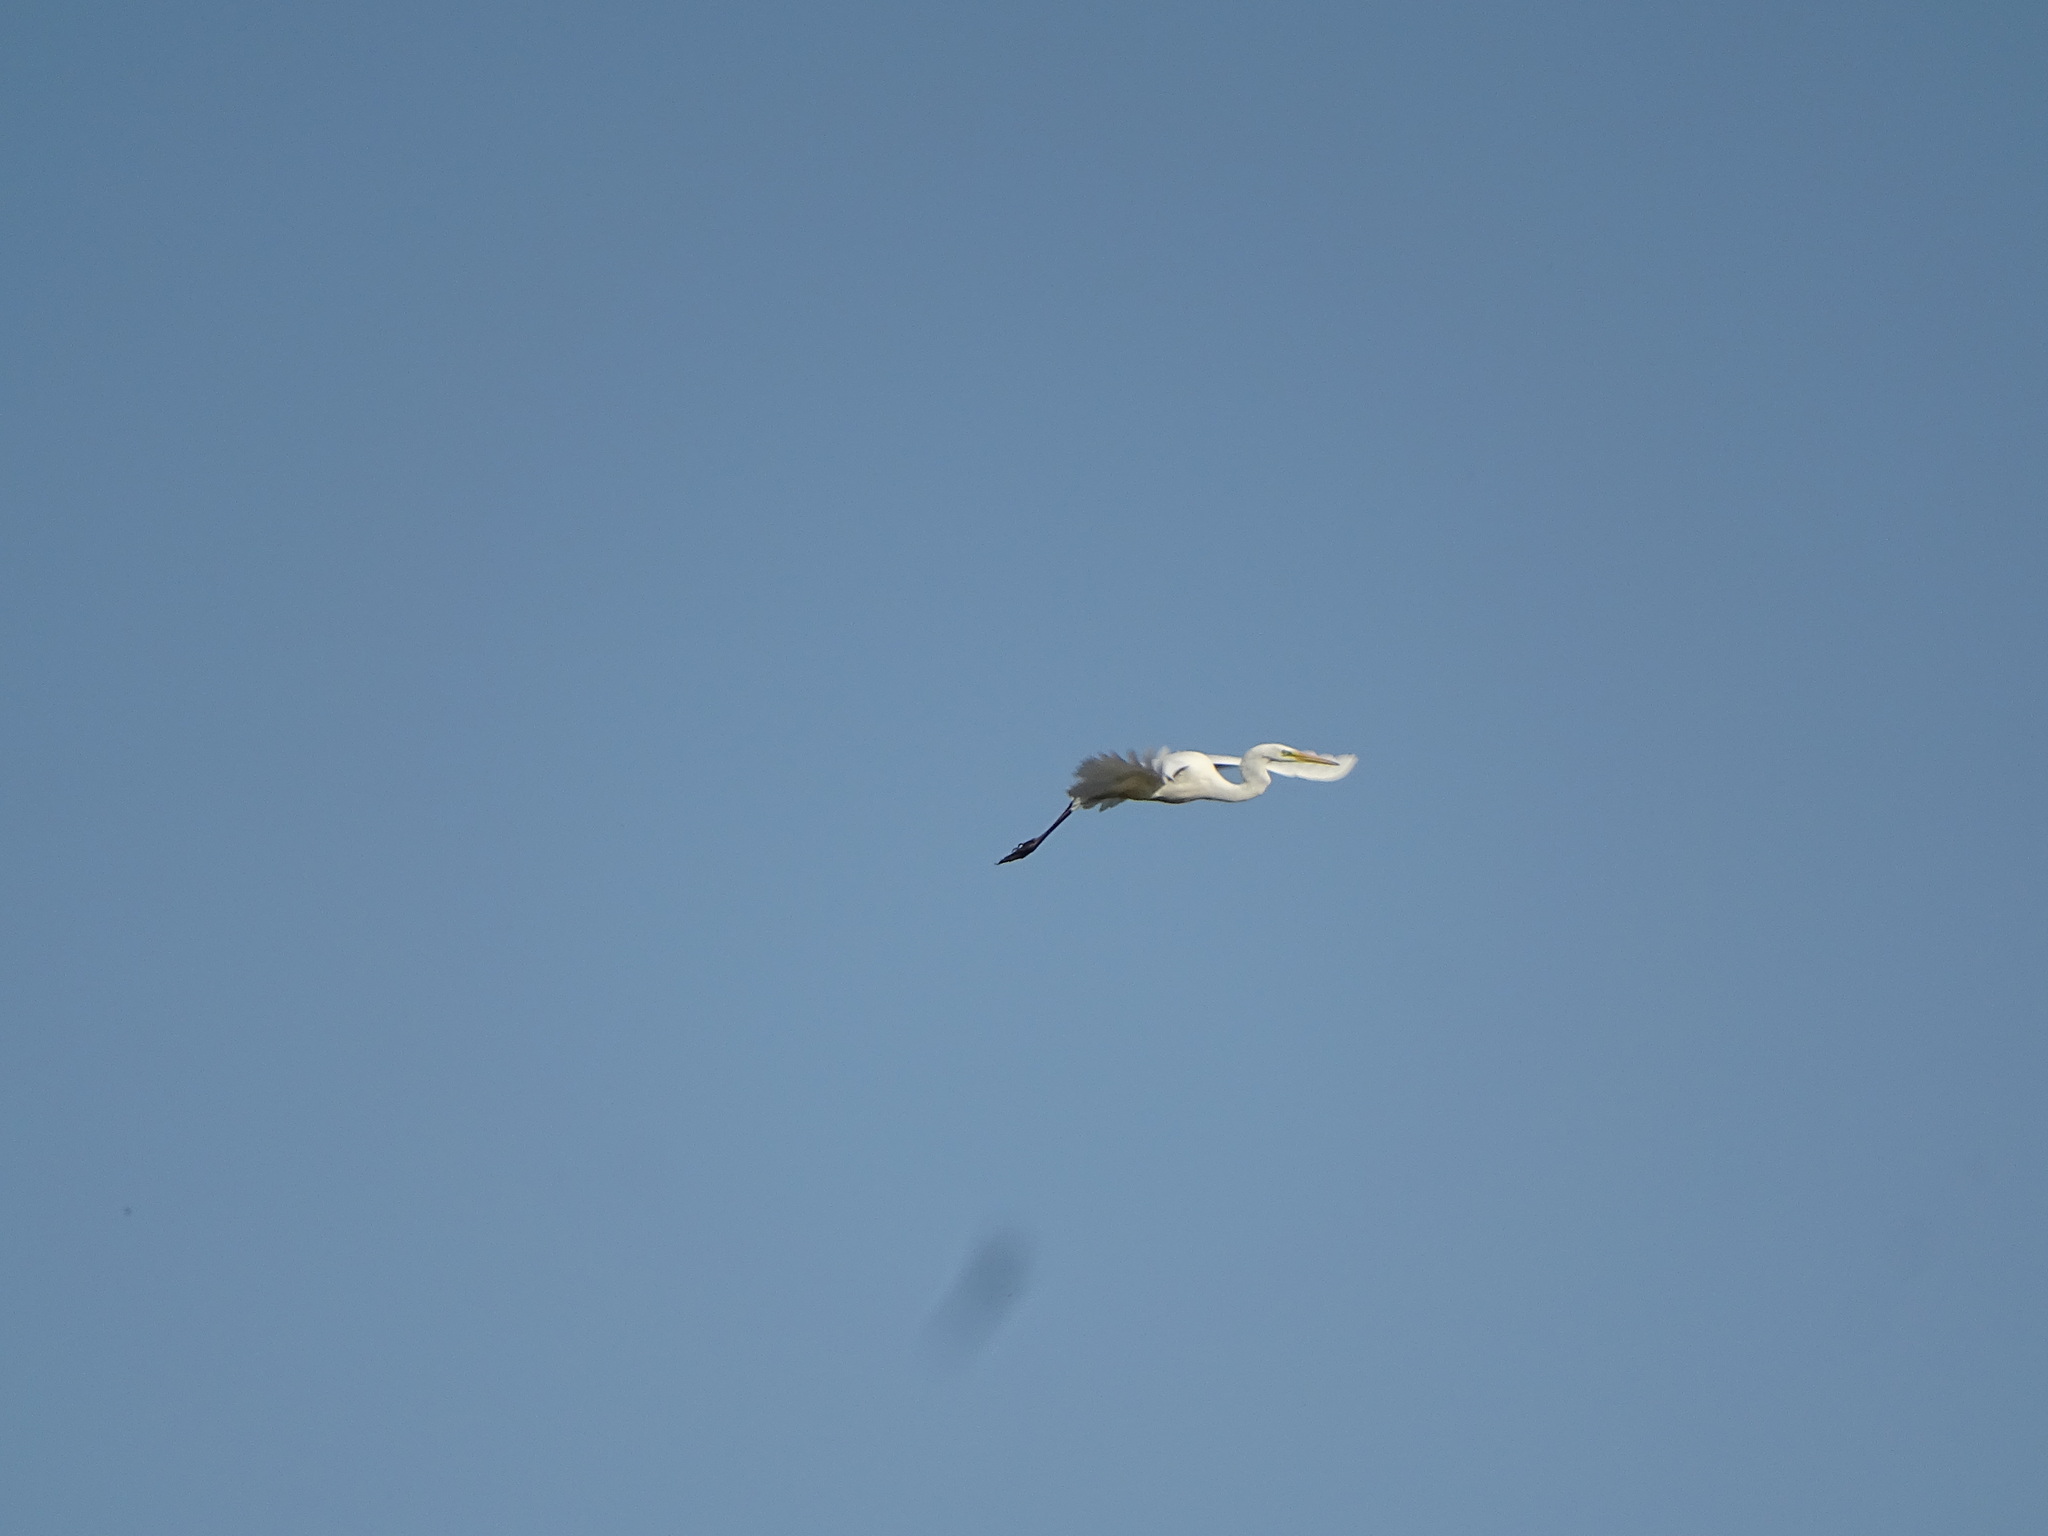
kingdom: Animalia
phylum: Chordata
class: Aves
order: Pelecaniformes
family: Ardeidae
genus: Ardea
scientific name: Ardea alba
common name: Great egret
